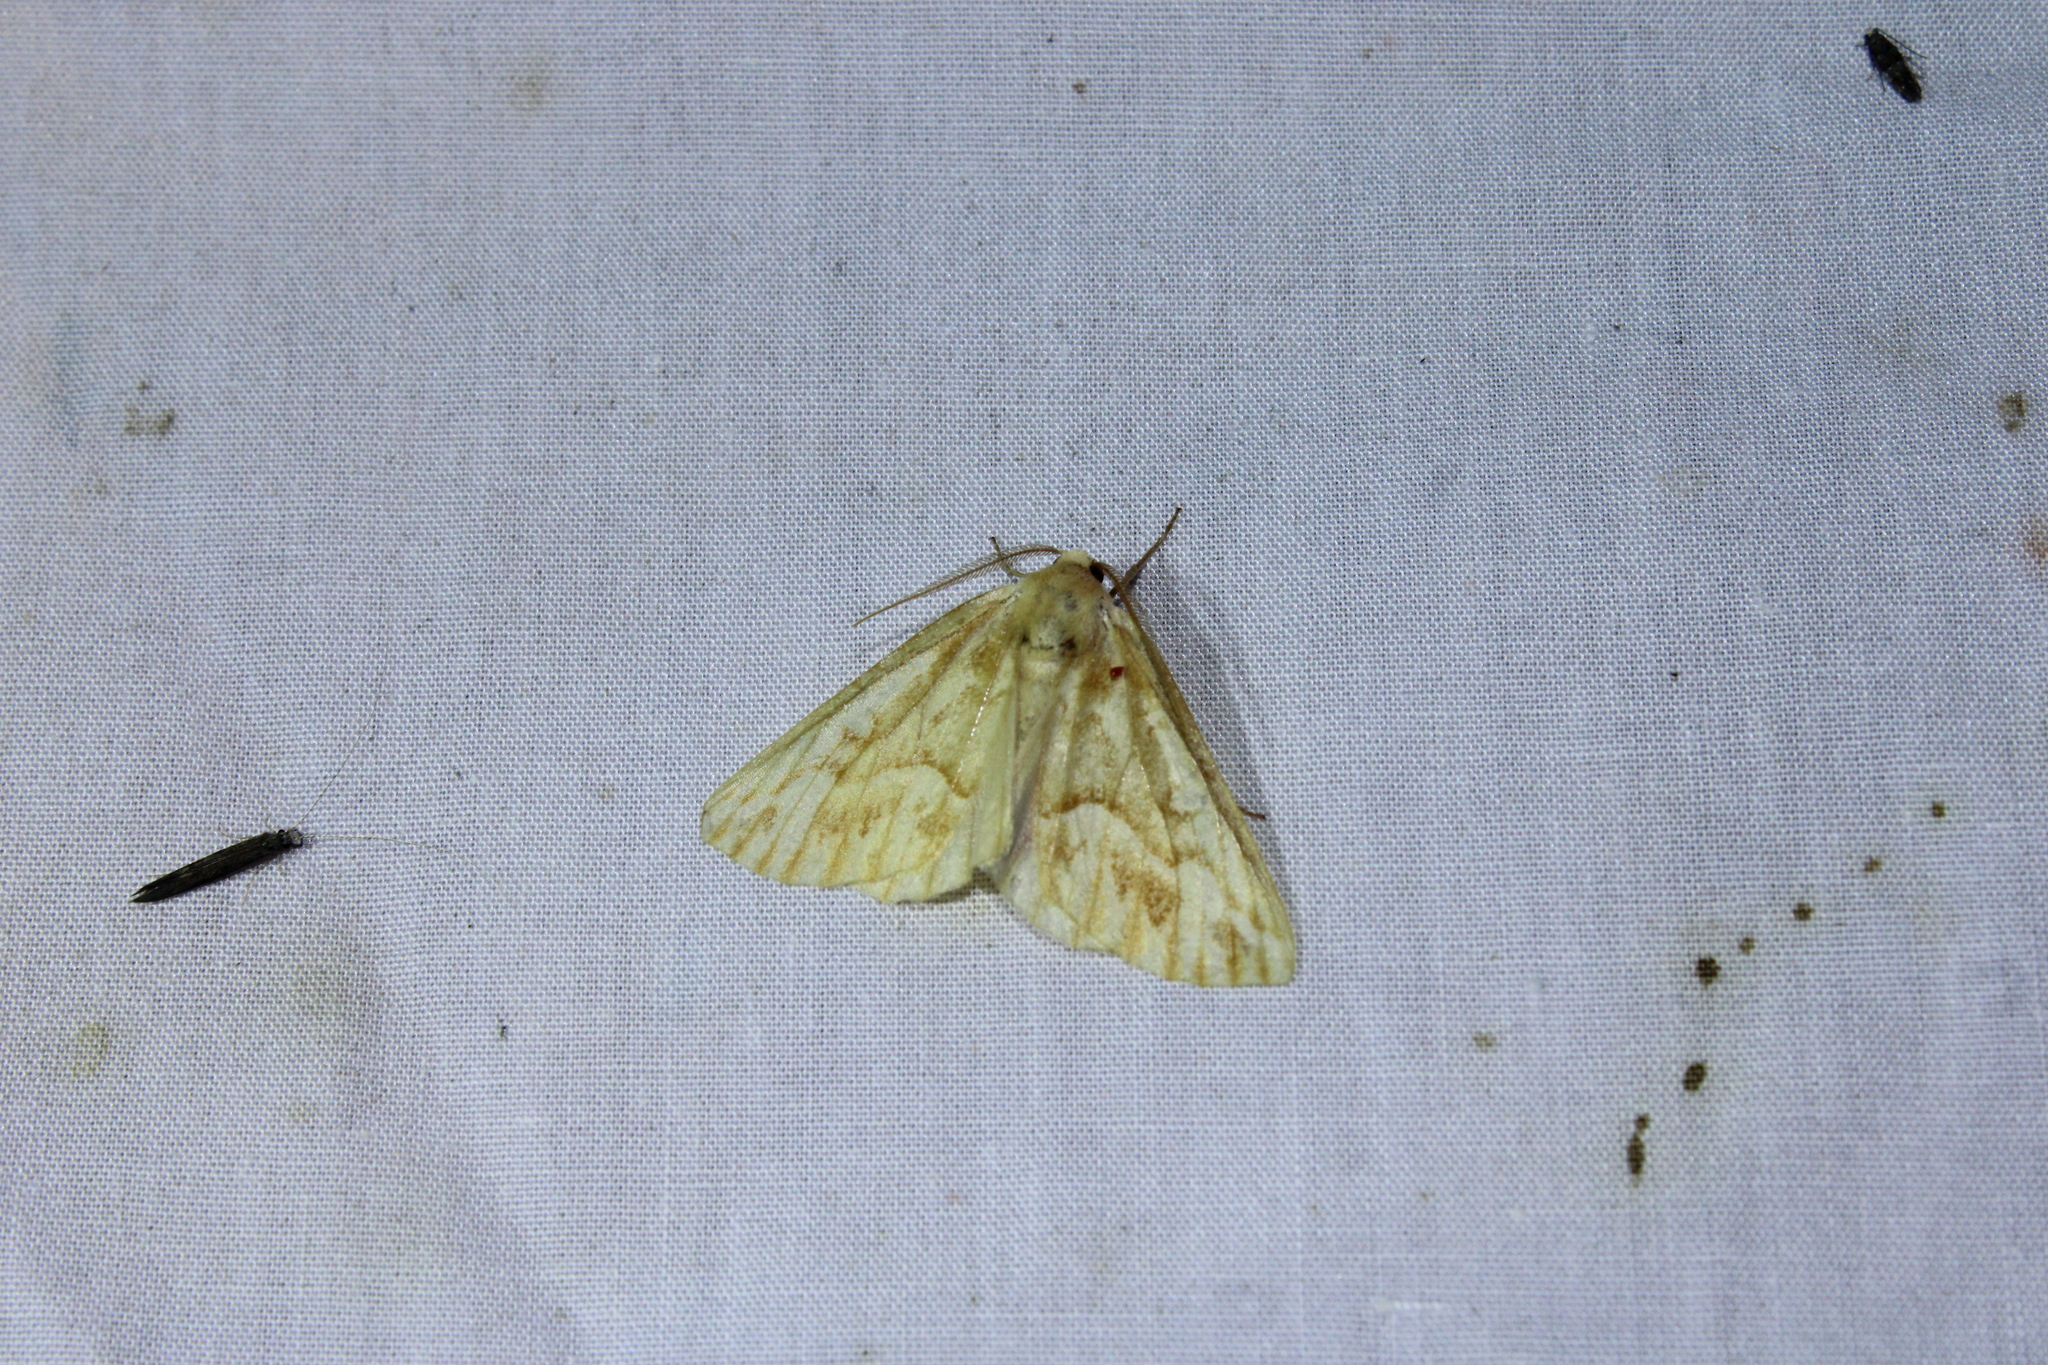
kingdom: Animalia
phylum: Arthropoda
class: Insecta
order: Lepidoptera
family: Geometridae
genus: Caripeta
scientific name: Caripeta piniata
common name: Northern pine looper moth
